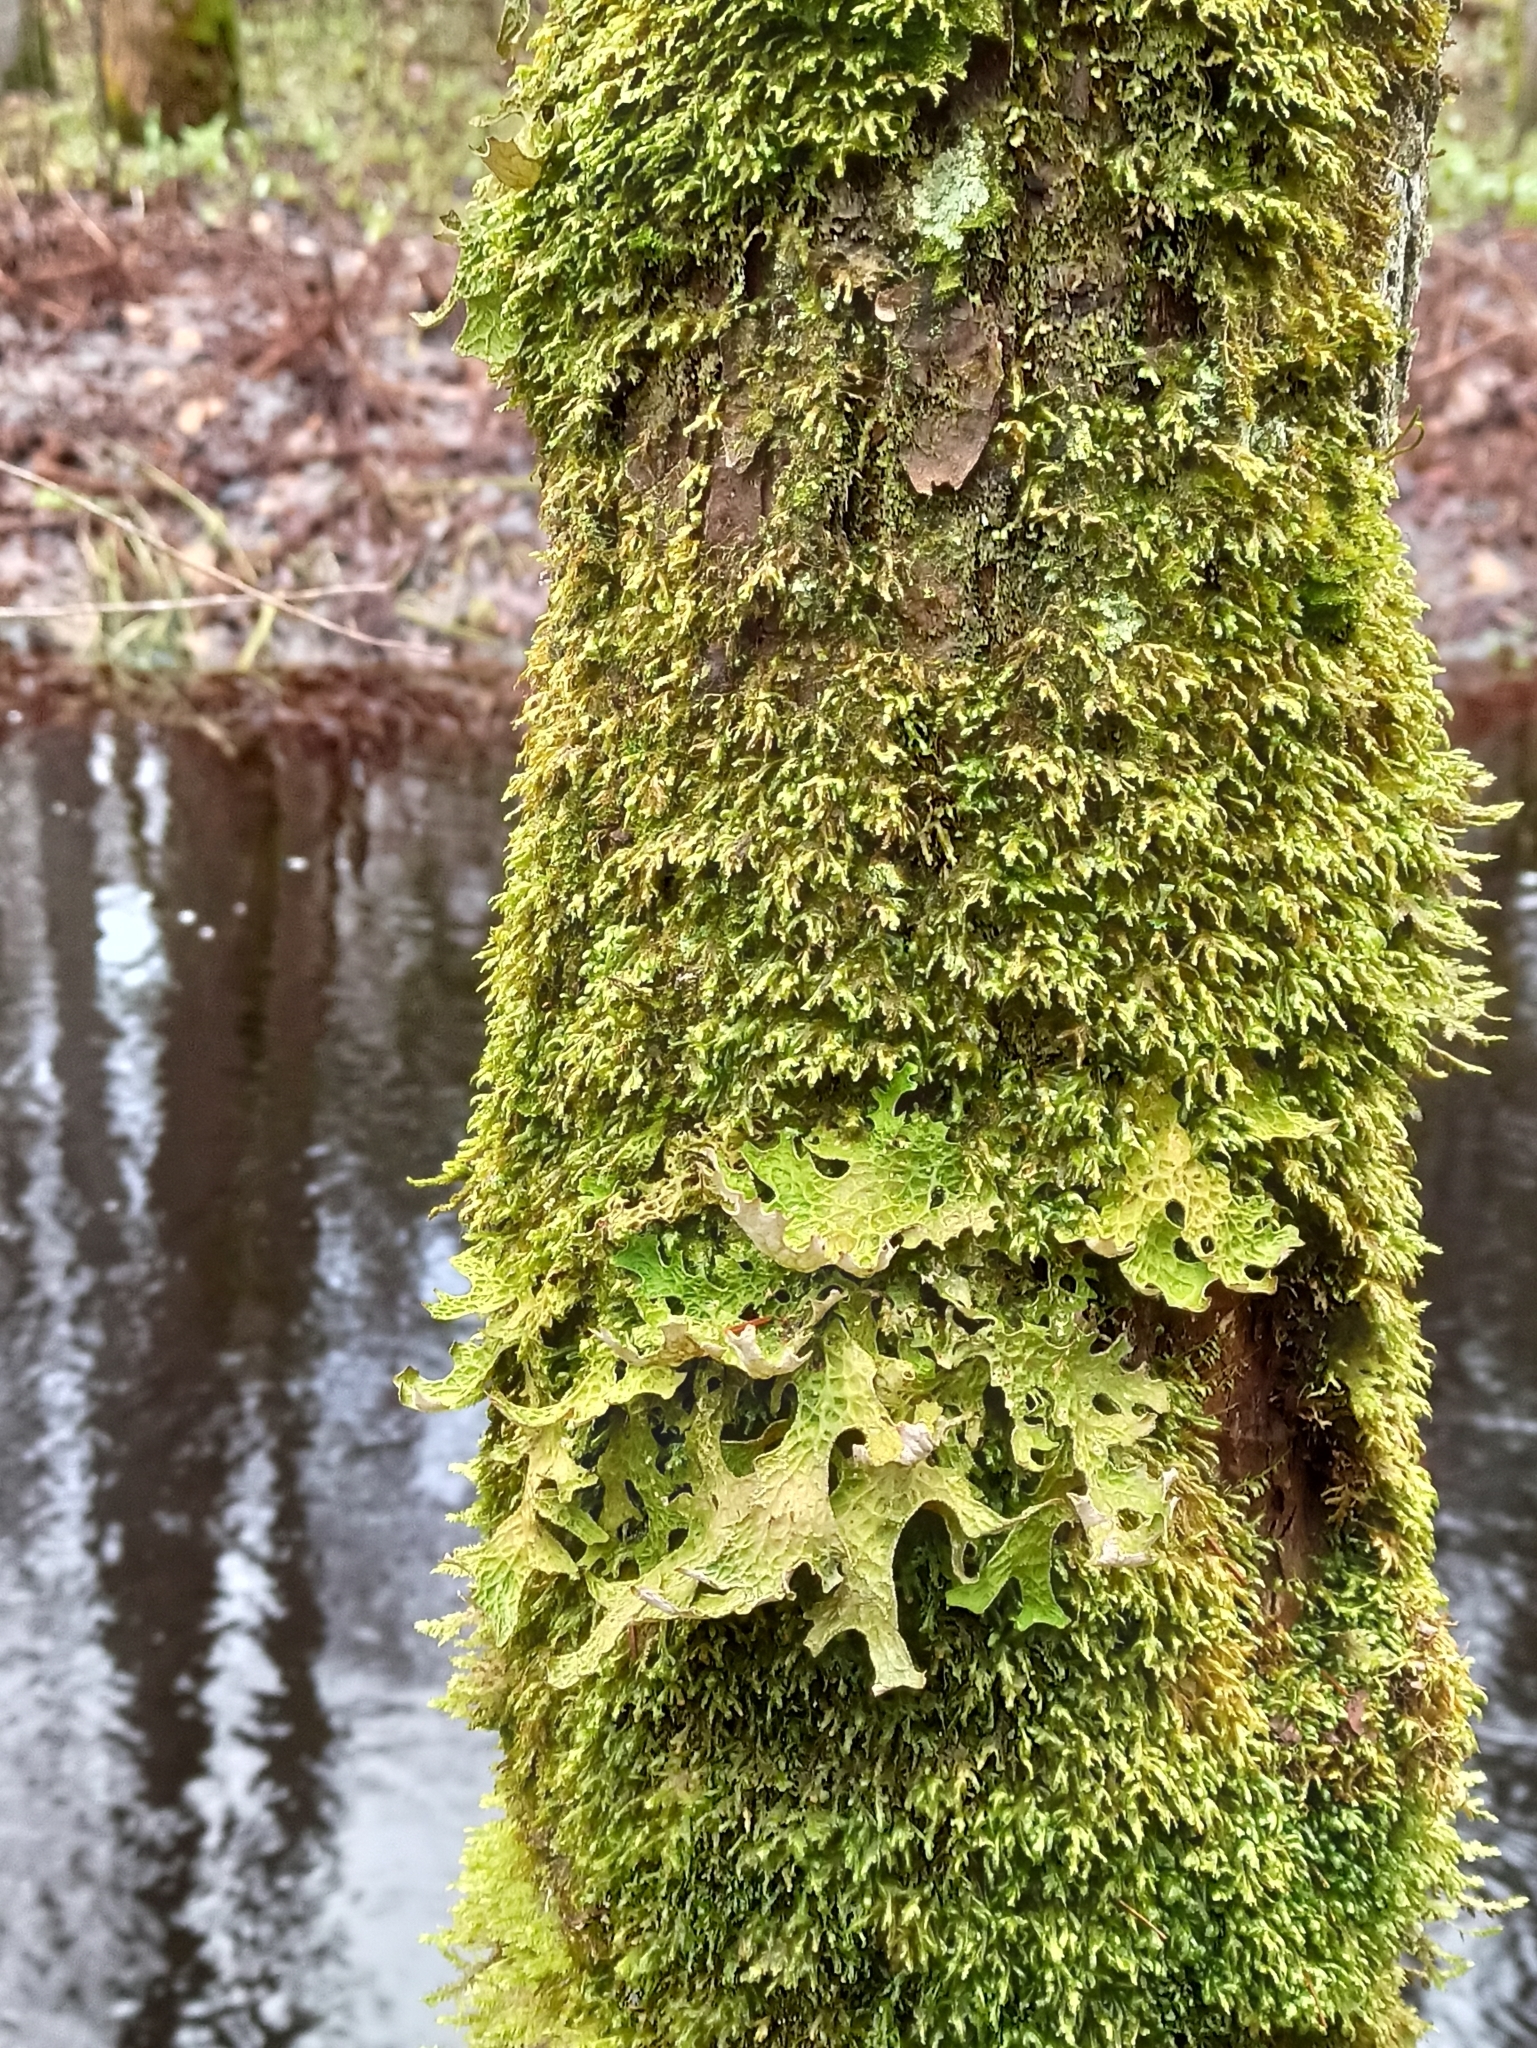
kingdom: Fungi
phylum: Ascomycota
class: Lecanoromycetes
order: Peltigerales
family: Lobariaceae
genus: Lobaria
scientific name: Lobaria pulmonaria
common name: Lungwort
